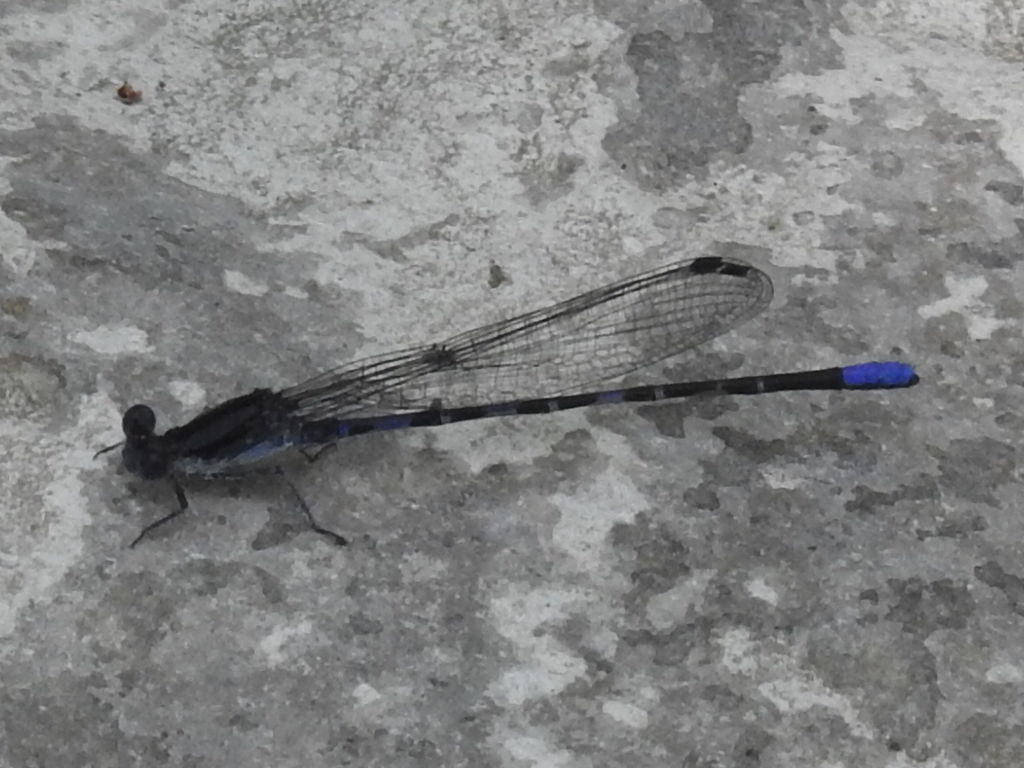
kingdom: Animalia
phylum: Arthropoda
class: Insecta
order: Odonata
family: Coenagrionidae
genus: Argia
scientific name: Argia immunda
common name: Kiowa dancer
